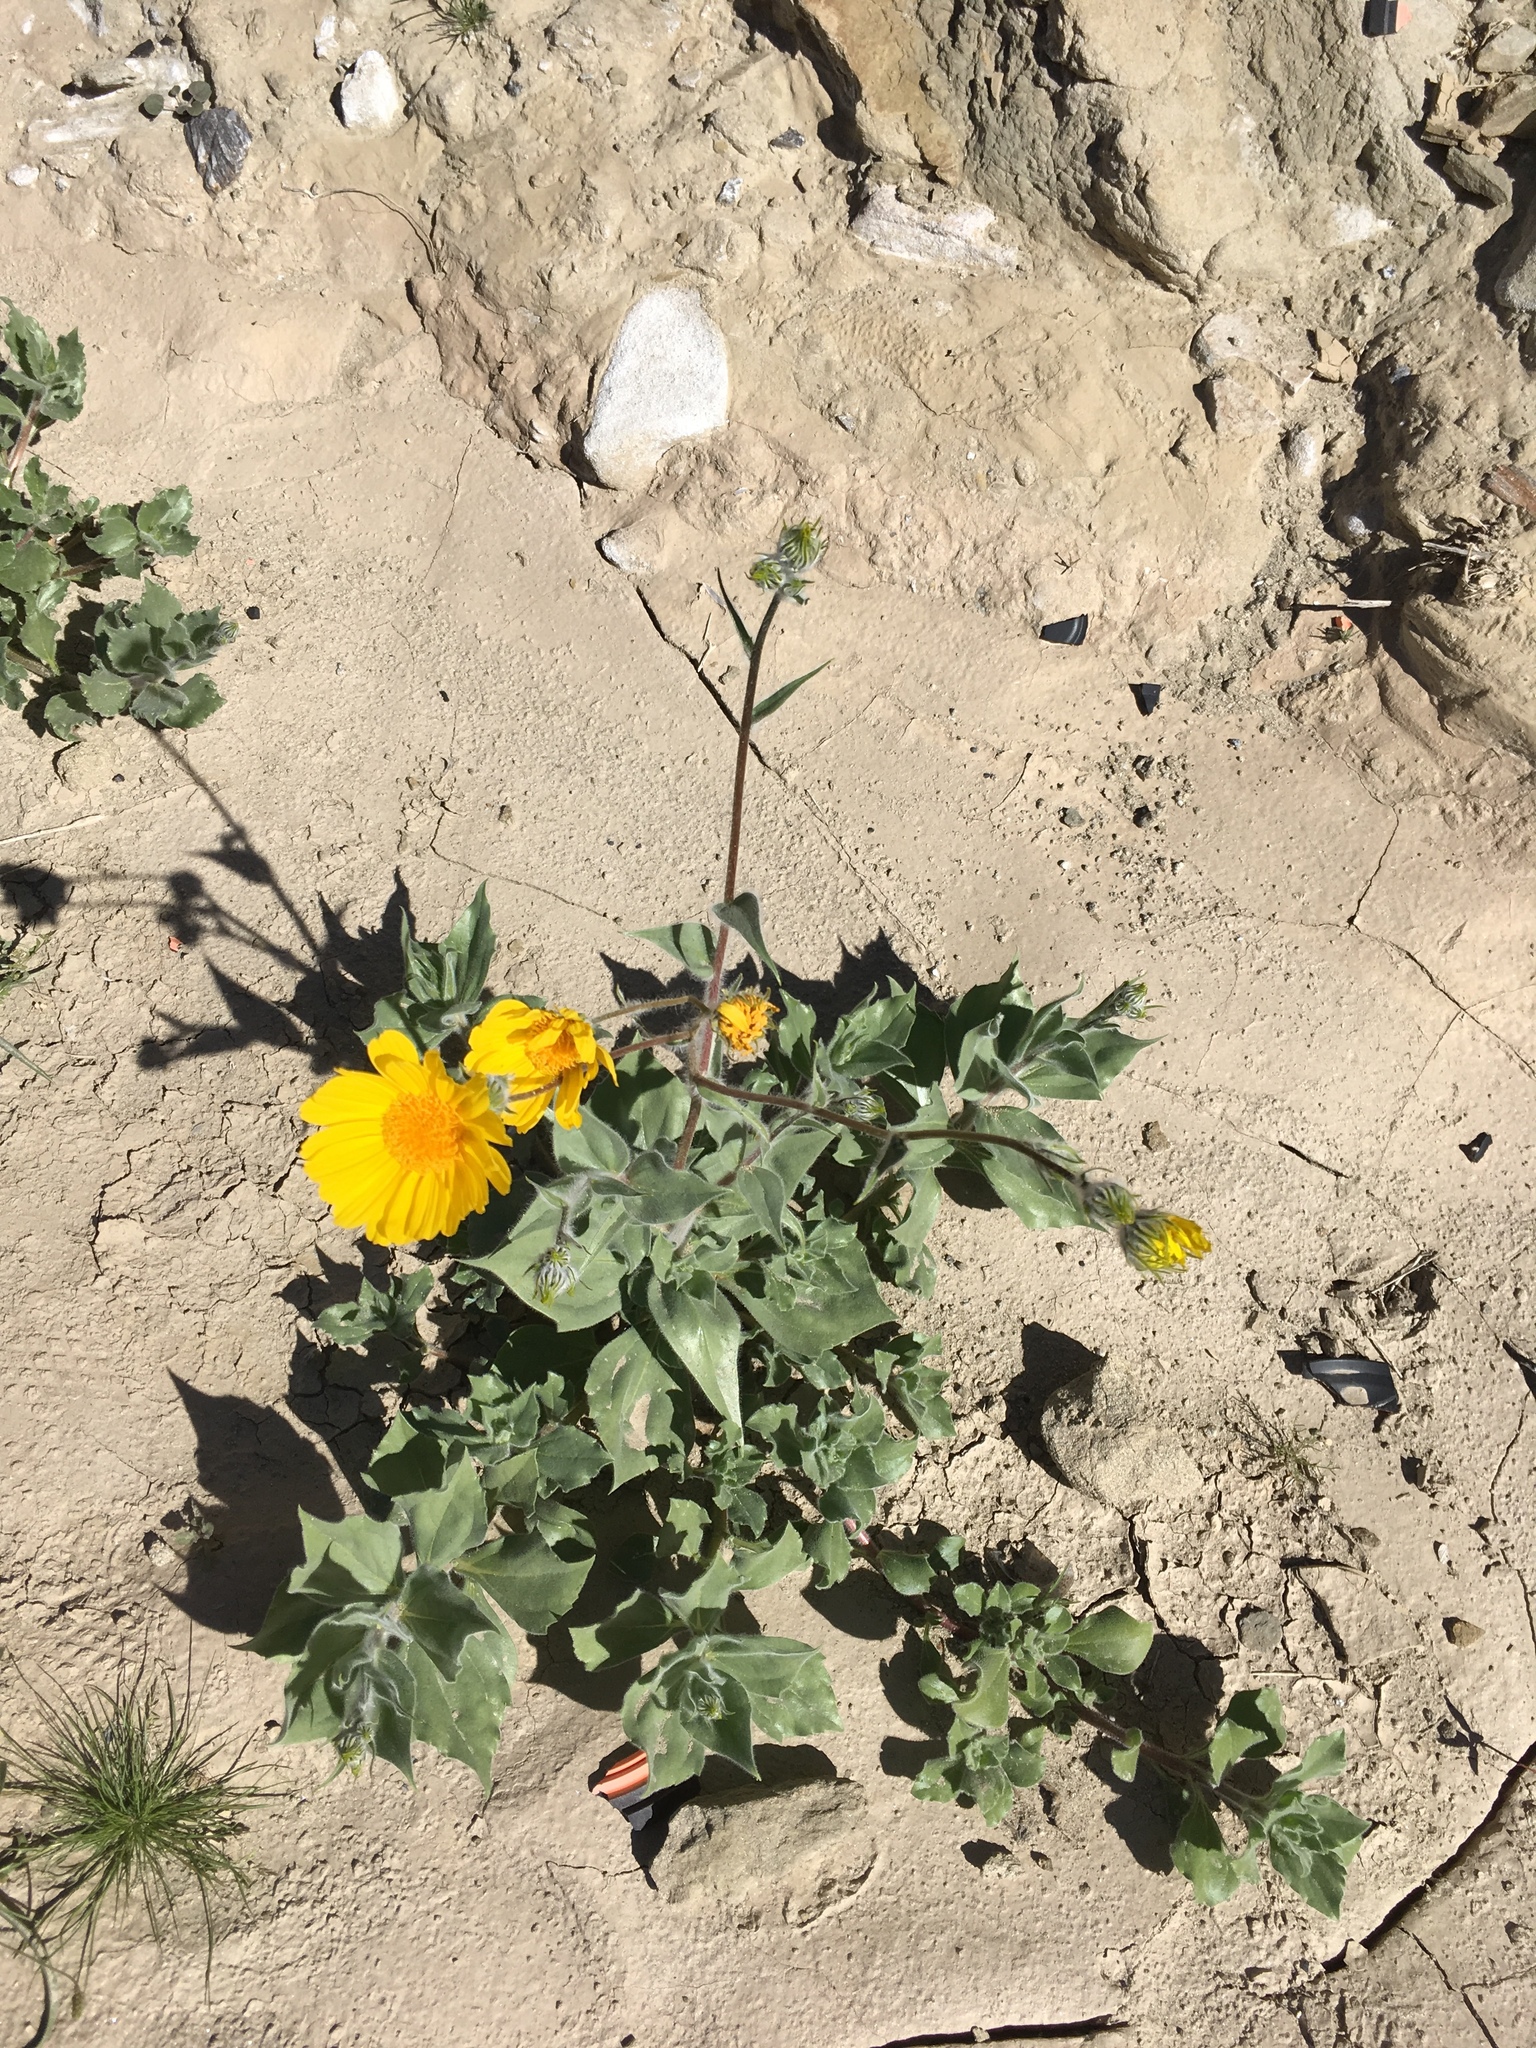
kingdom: Plantae
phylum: Tracheophyta
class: Magnoliopsida
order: Asterales
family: Asteraceae
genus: Geraea
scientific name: Geraea canescens
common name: Desert-gold
